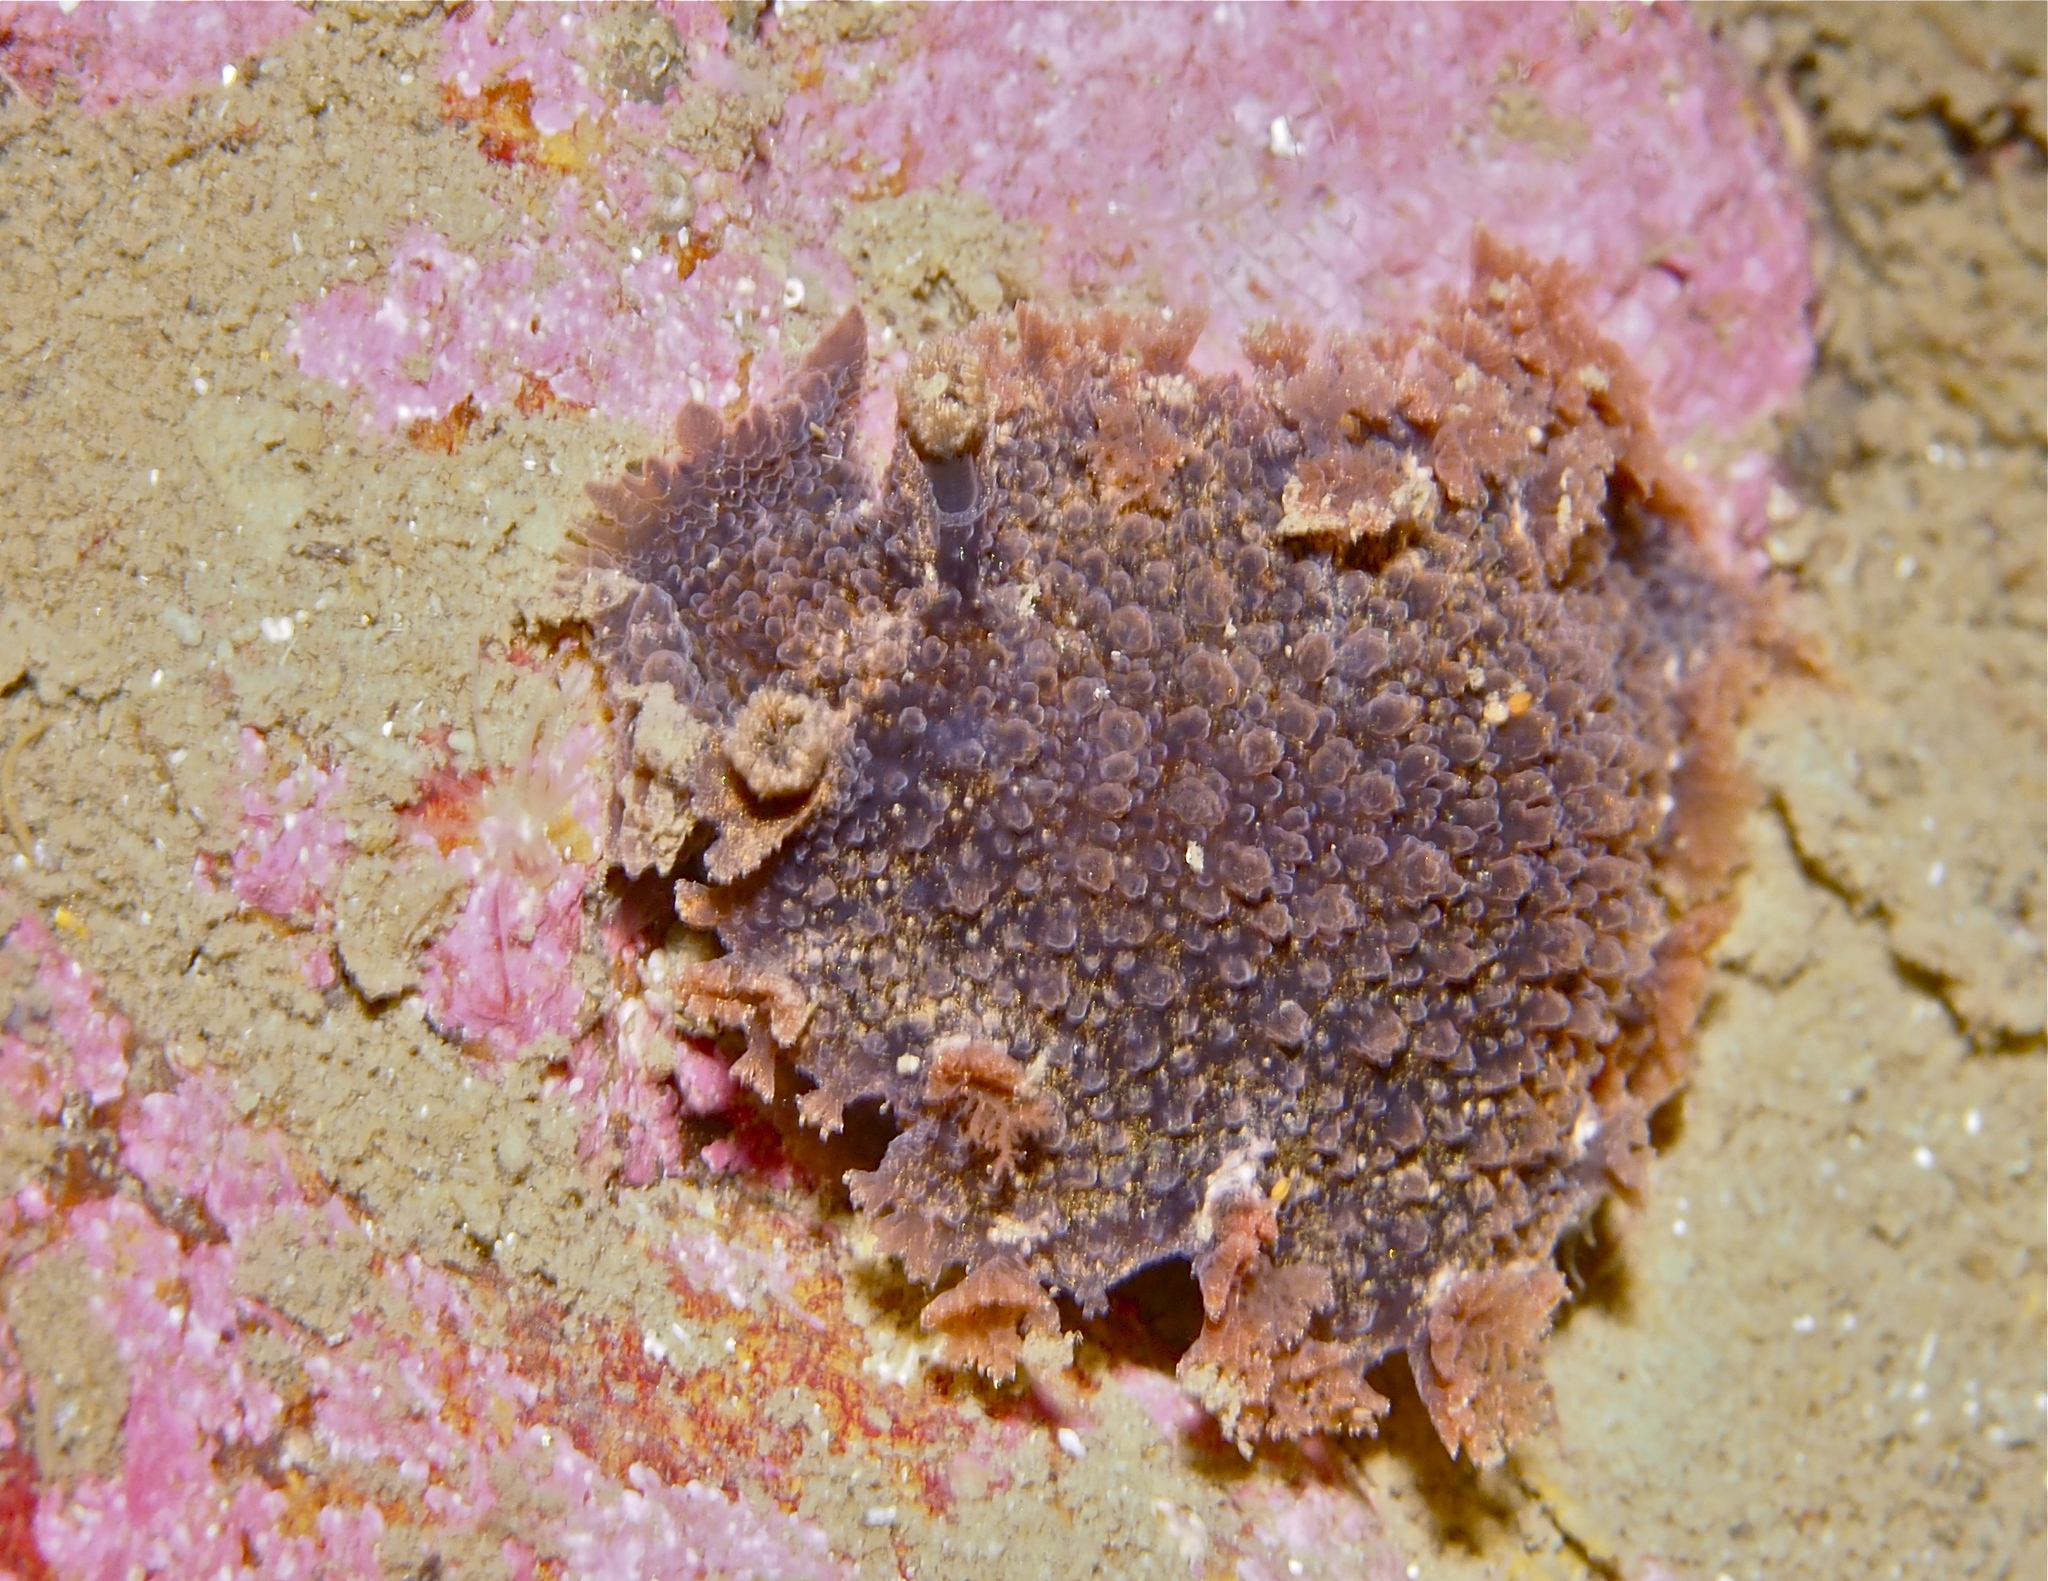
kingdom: Animalia
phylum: Mollusca
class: Gastropoda
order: Nudibranchia
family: Tritoniidae
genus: Tritonia
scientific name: Tritonia hombergii
